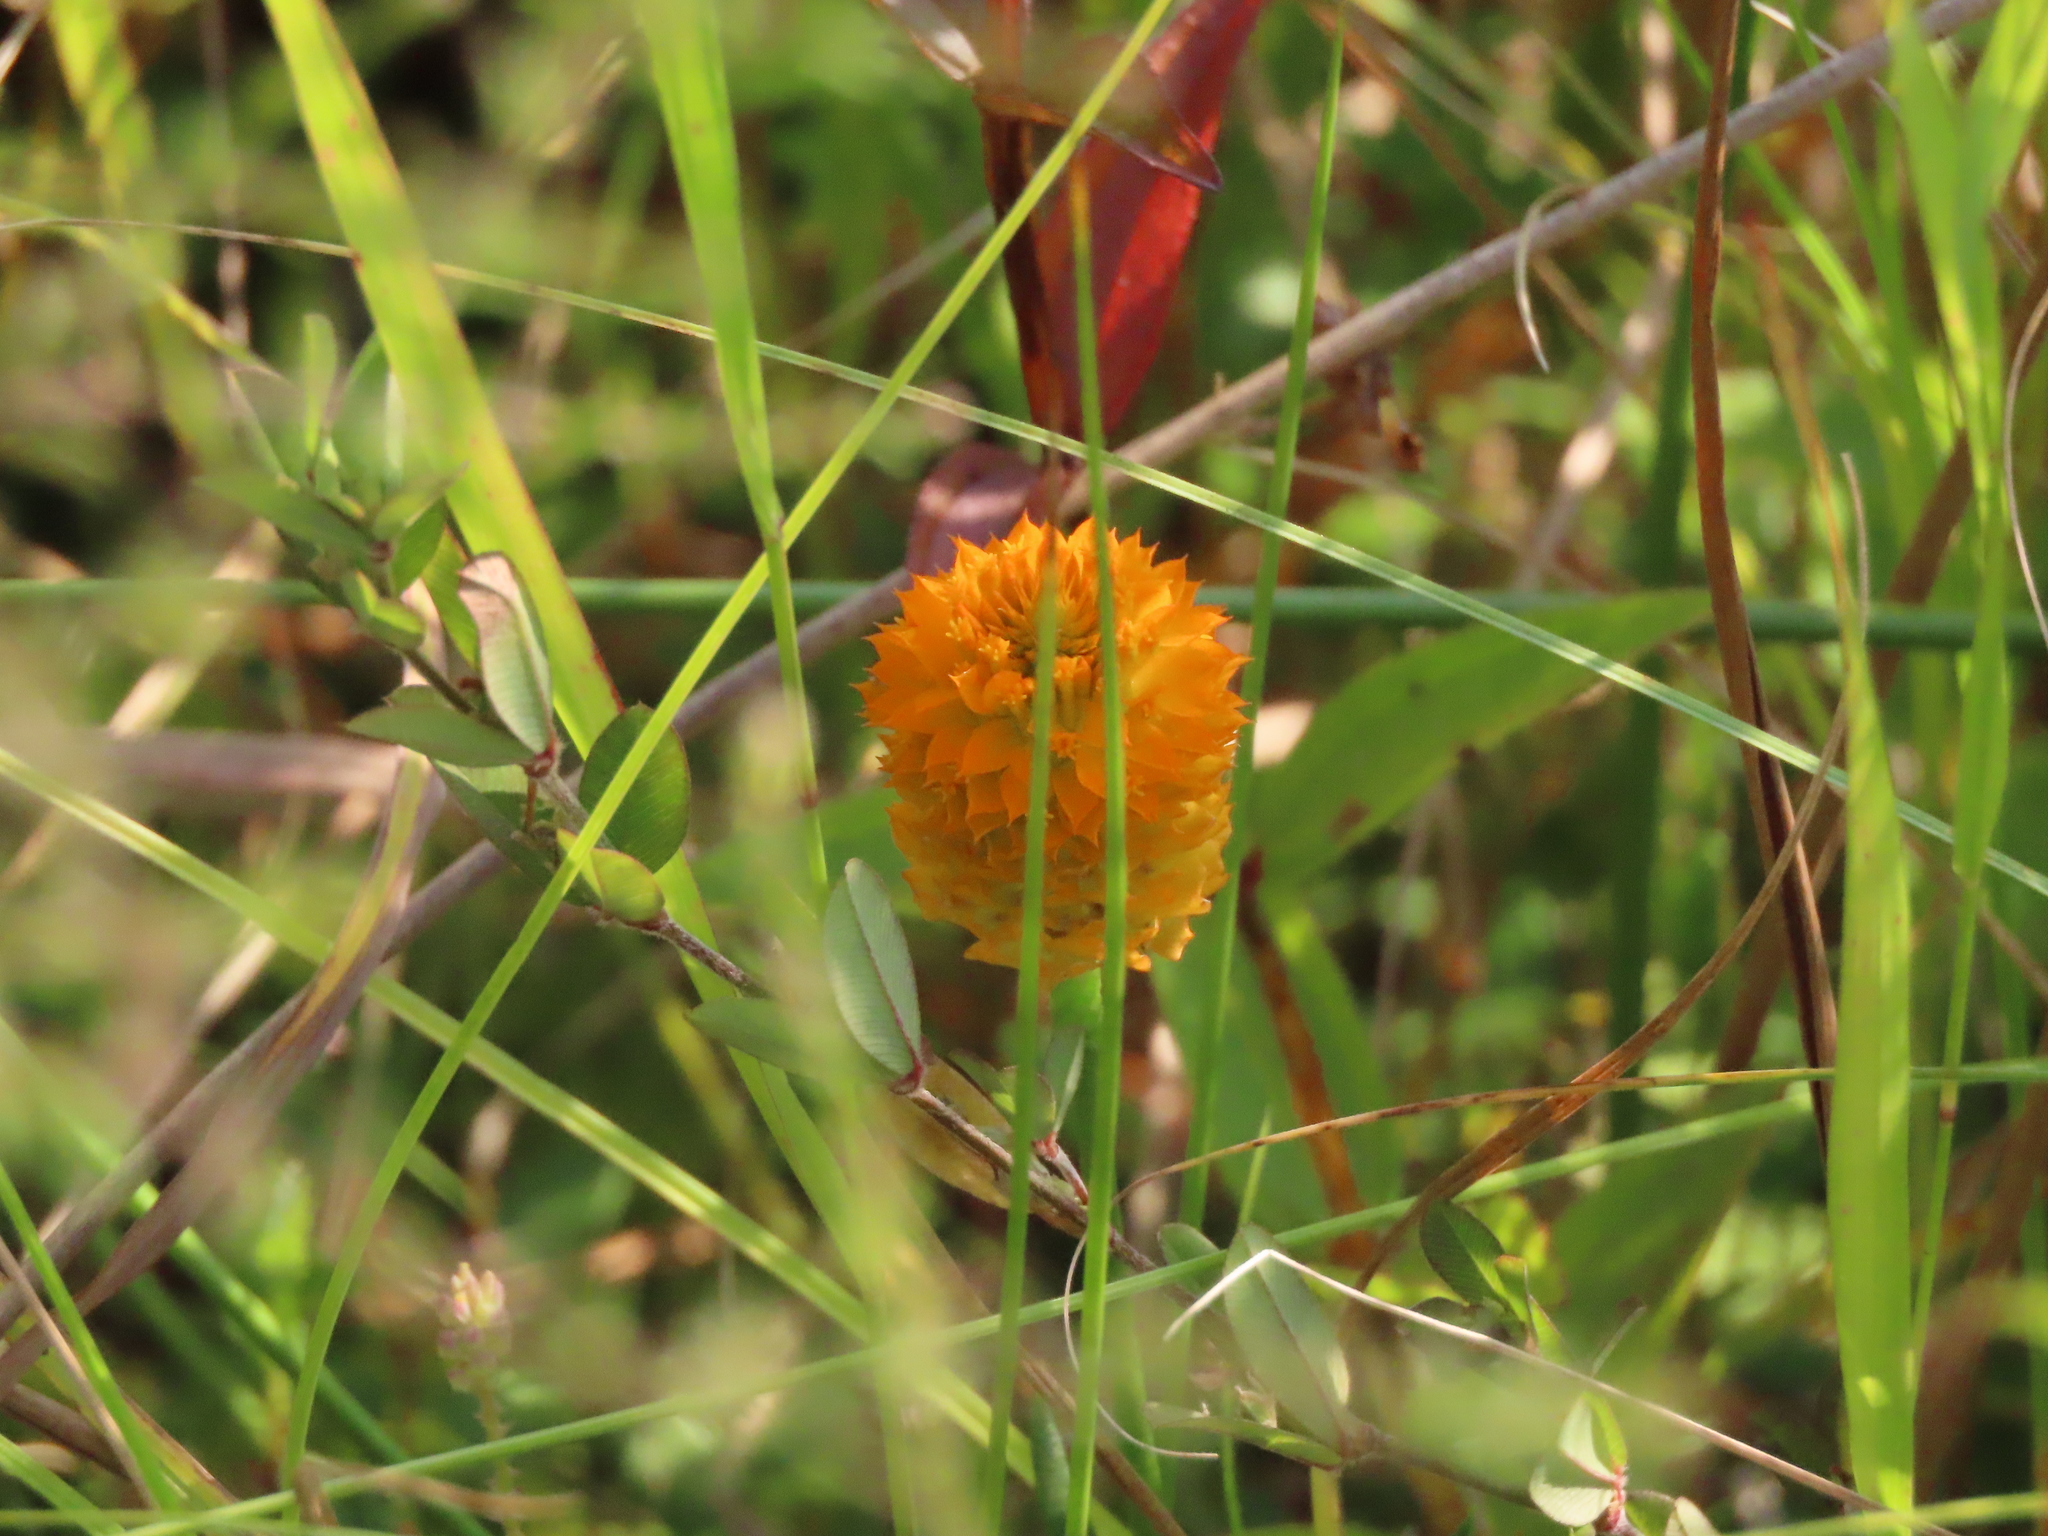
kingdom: Plantae
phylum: Tracheophyta
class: Magnoliopsida
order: Fabales
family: Polygalaceae
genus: Polygala
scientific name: Polygala lutea
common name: Orange milkwort
